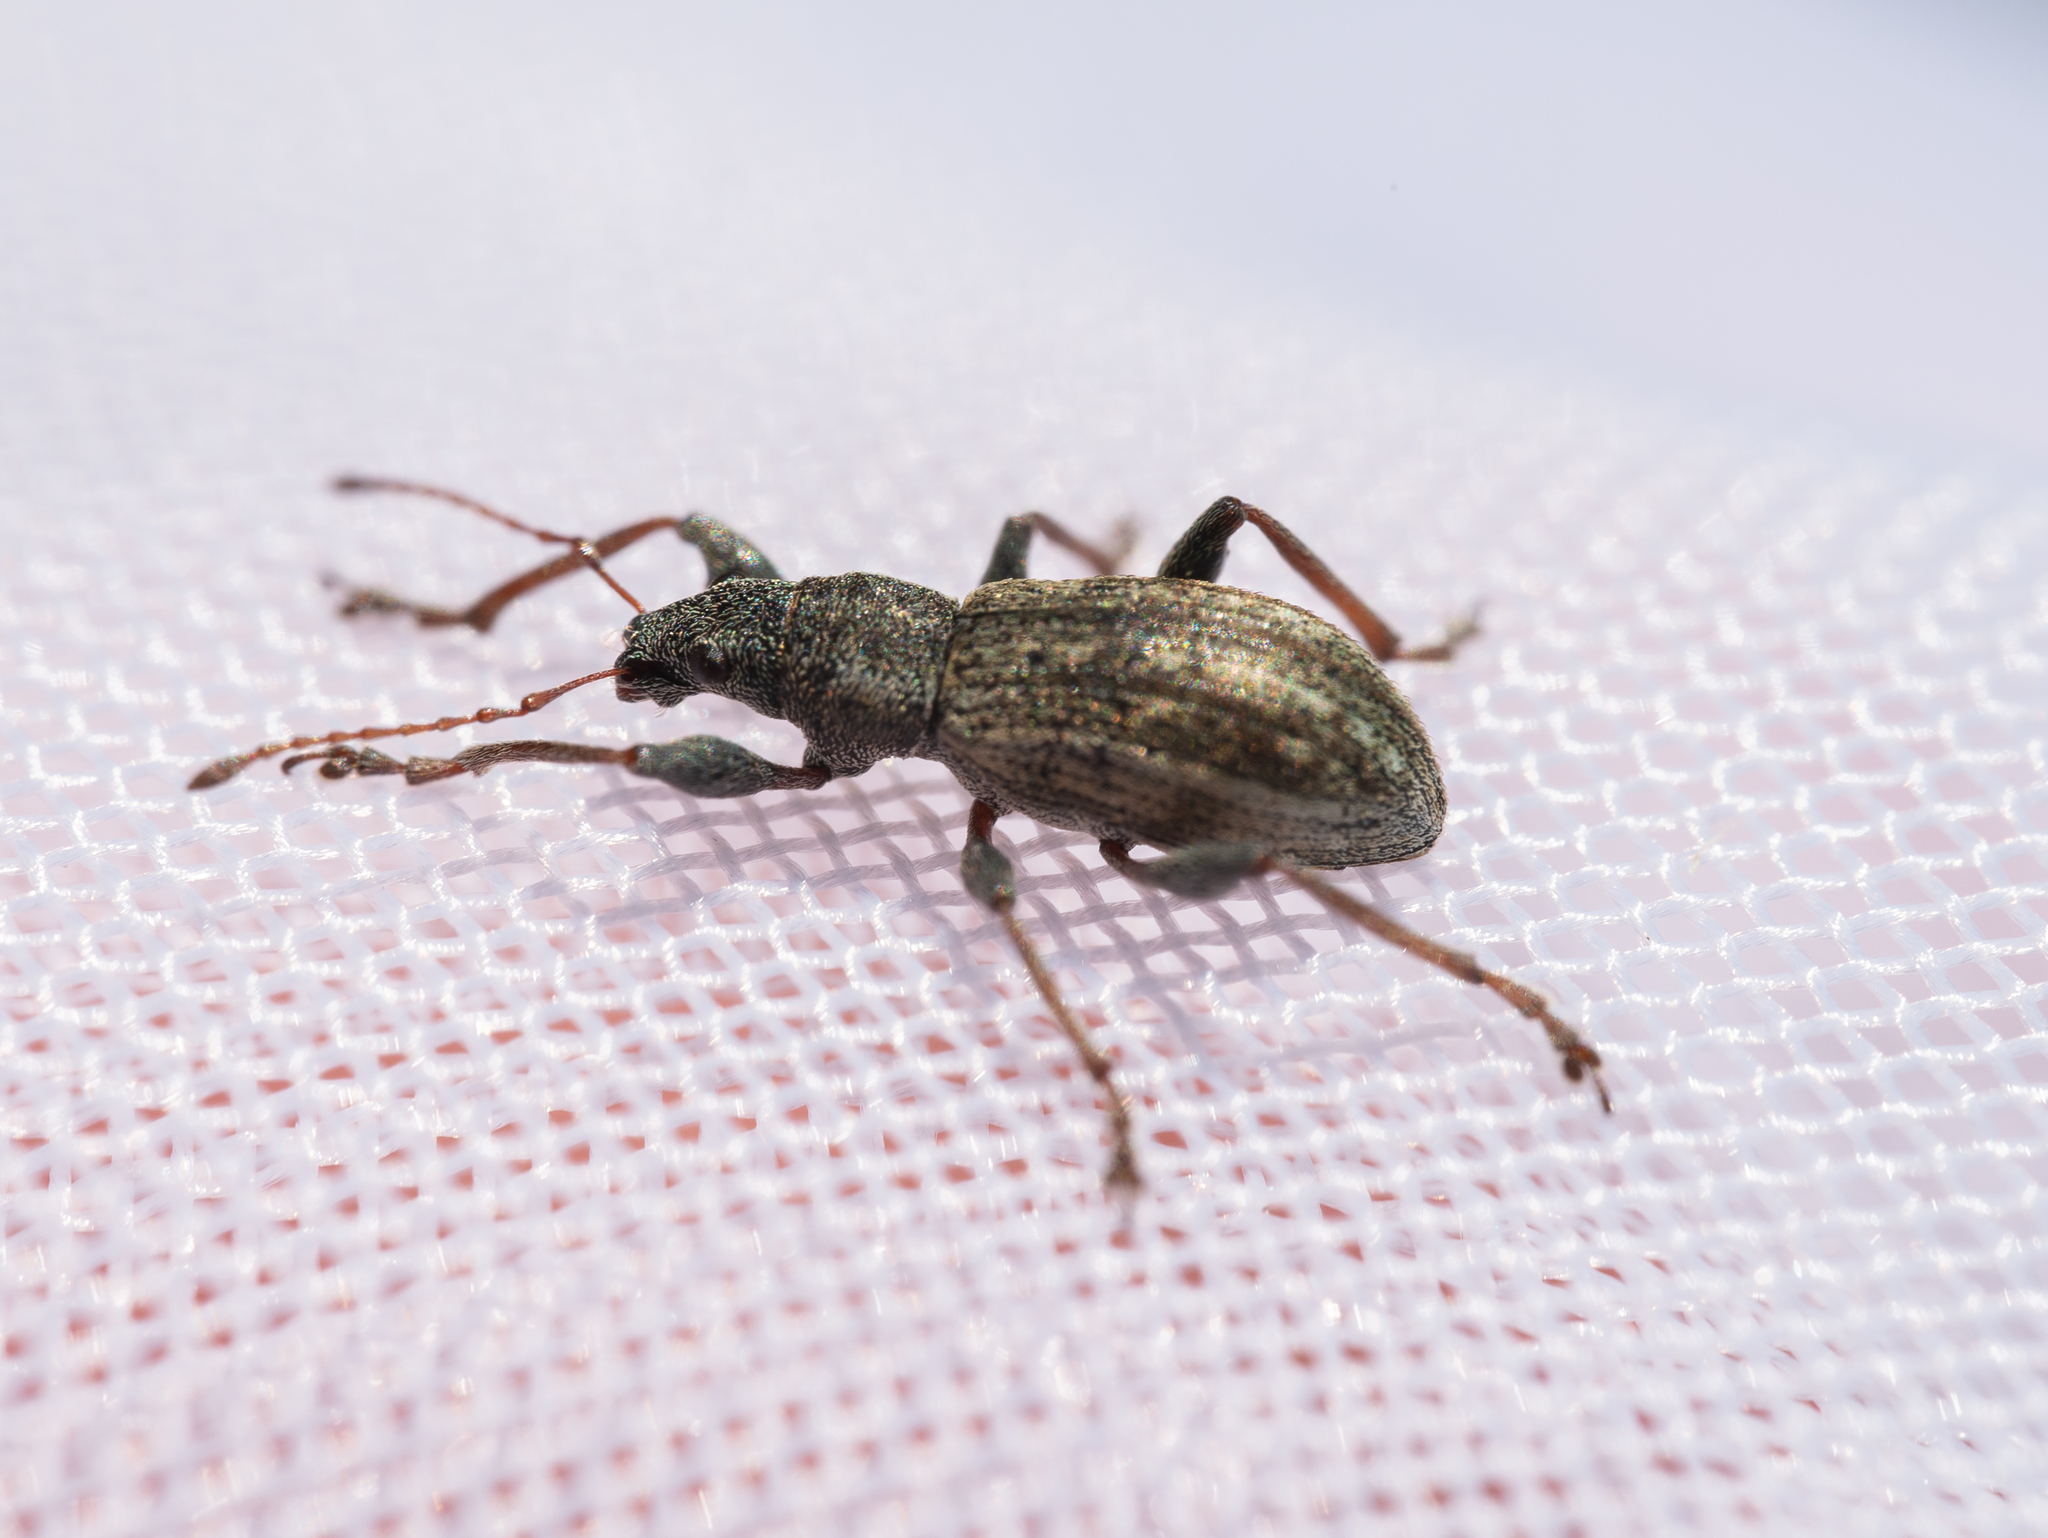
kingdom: Animalia
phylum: Arthropoda
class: Insecta
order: Coleoptera
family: Curculionidae
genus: Polydrusus
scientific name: Polydrusus confluens
